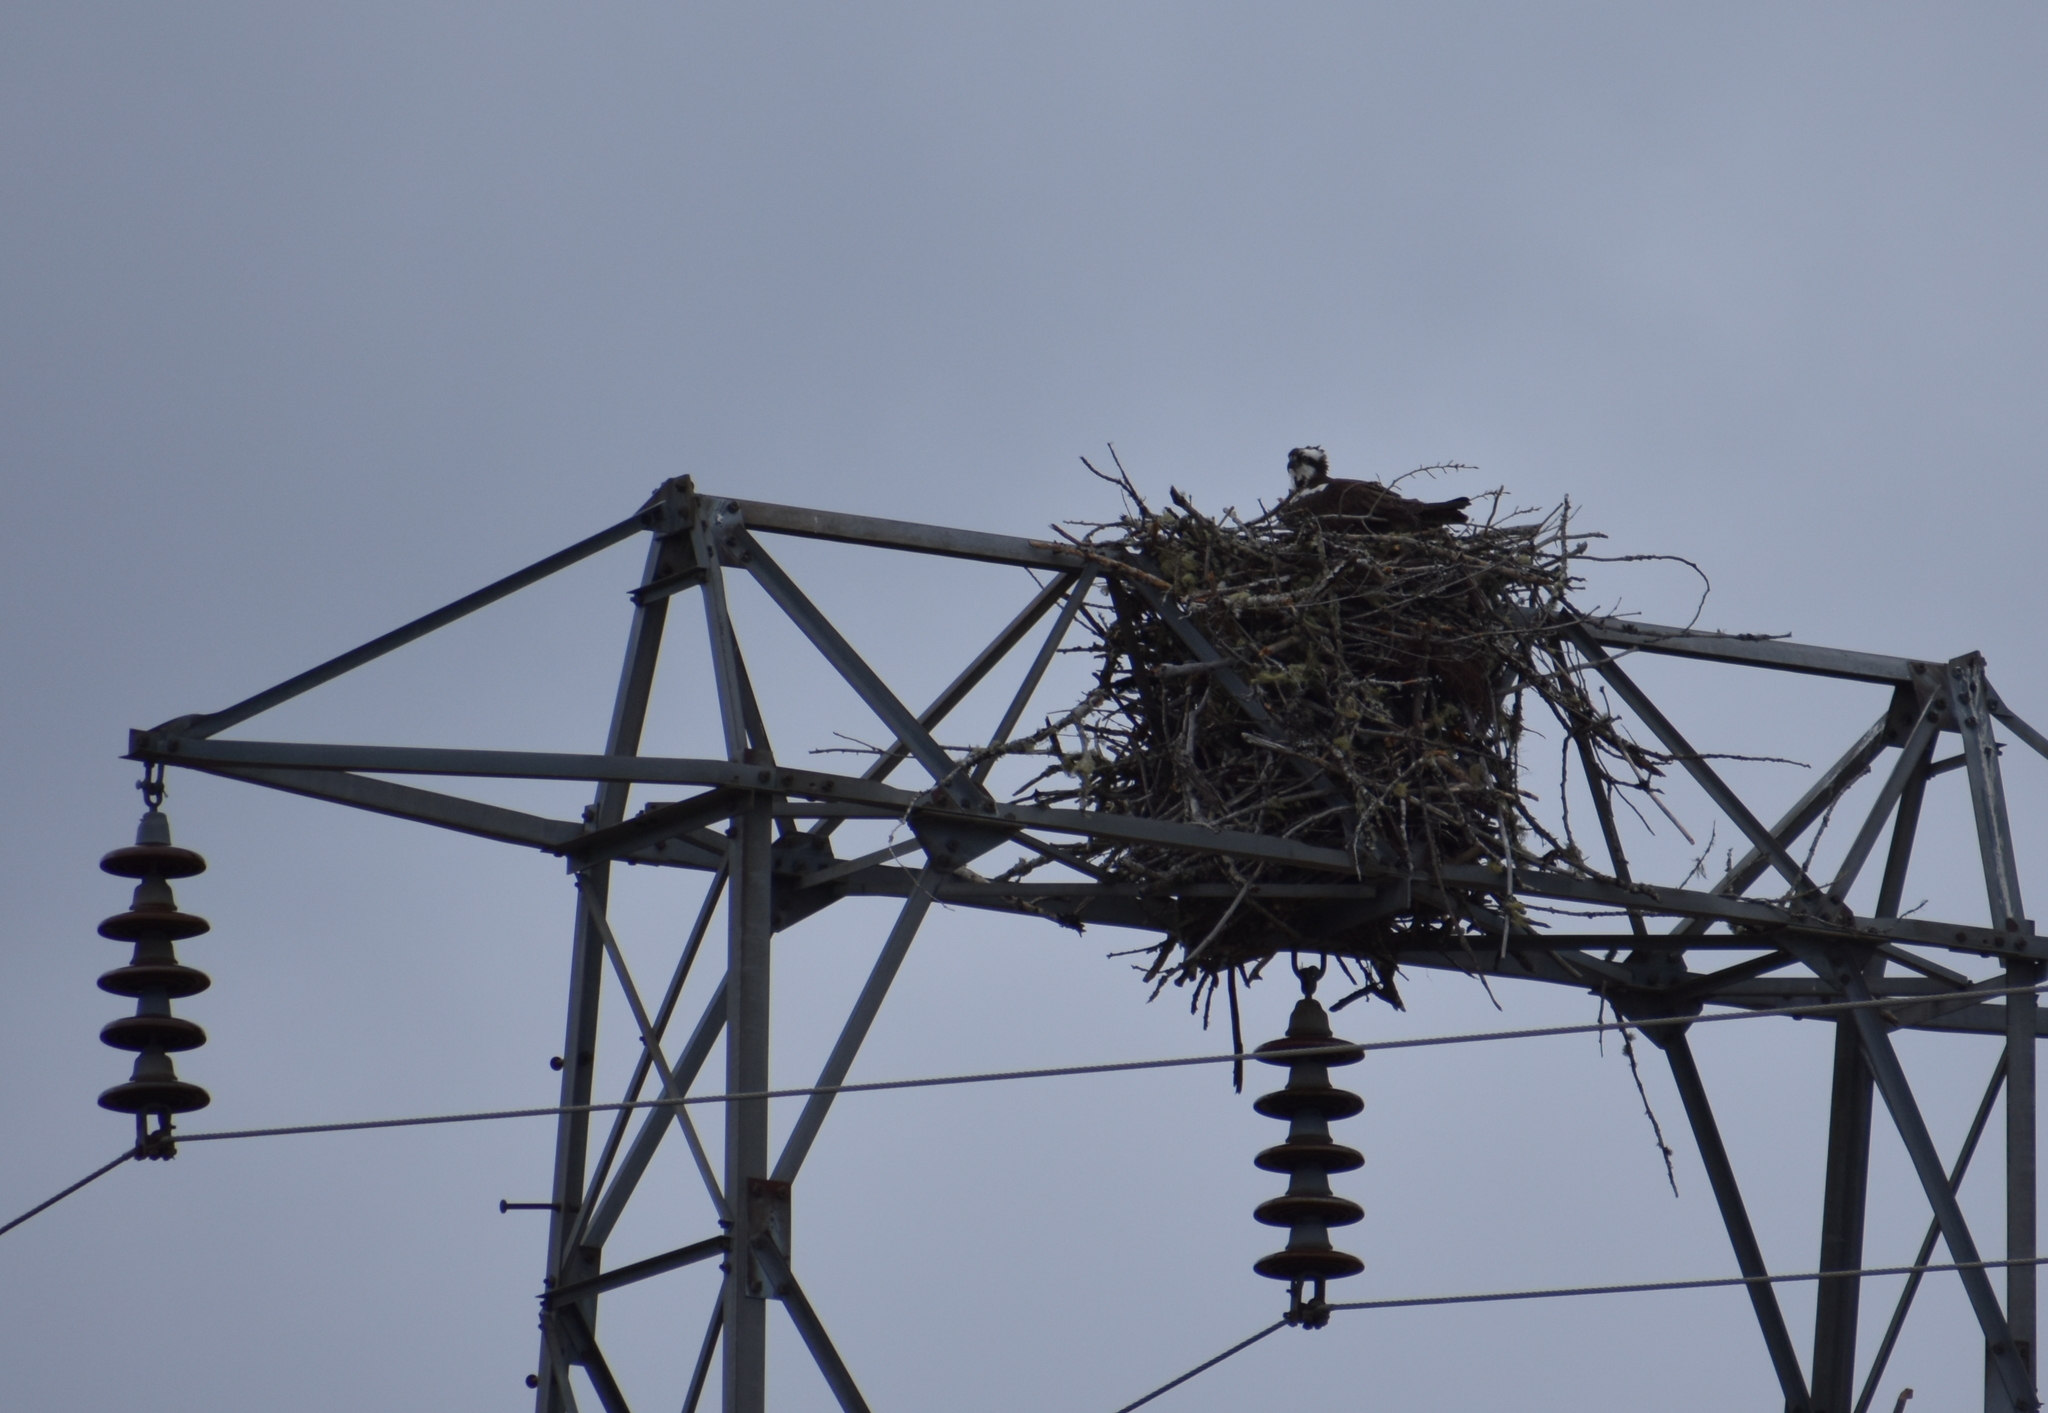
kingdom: Animalia
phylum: Chordata
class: Aves
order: Accipitriformes
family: Pandionidae
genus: Pandion
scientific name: Pandion haliaetus
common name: Osprey
